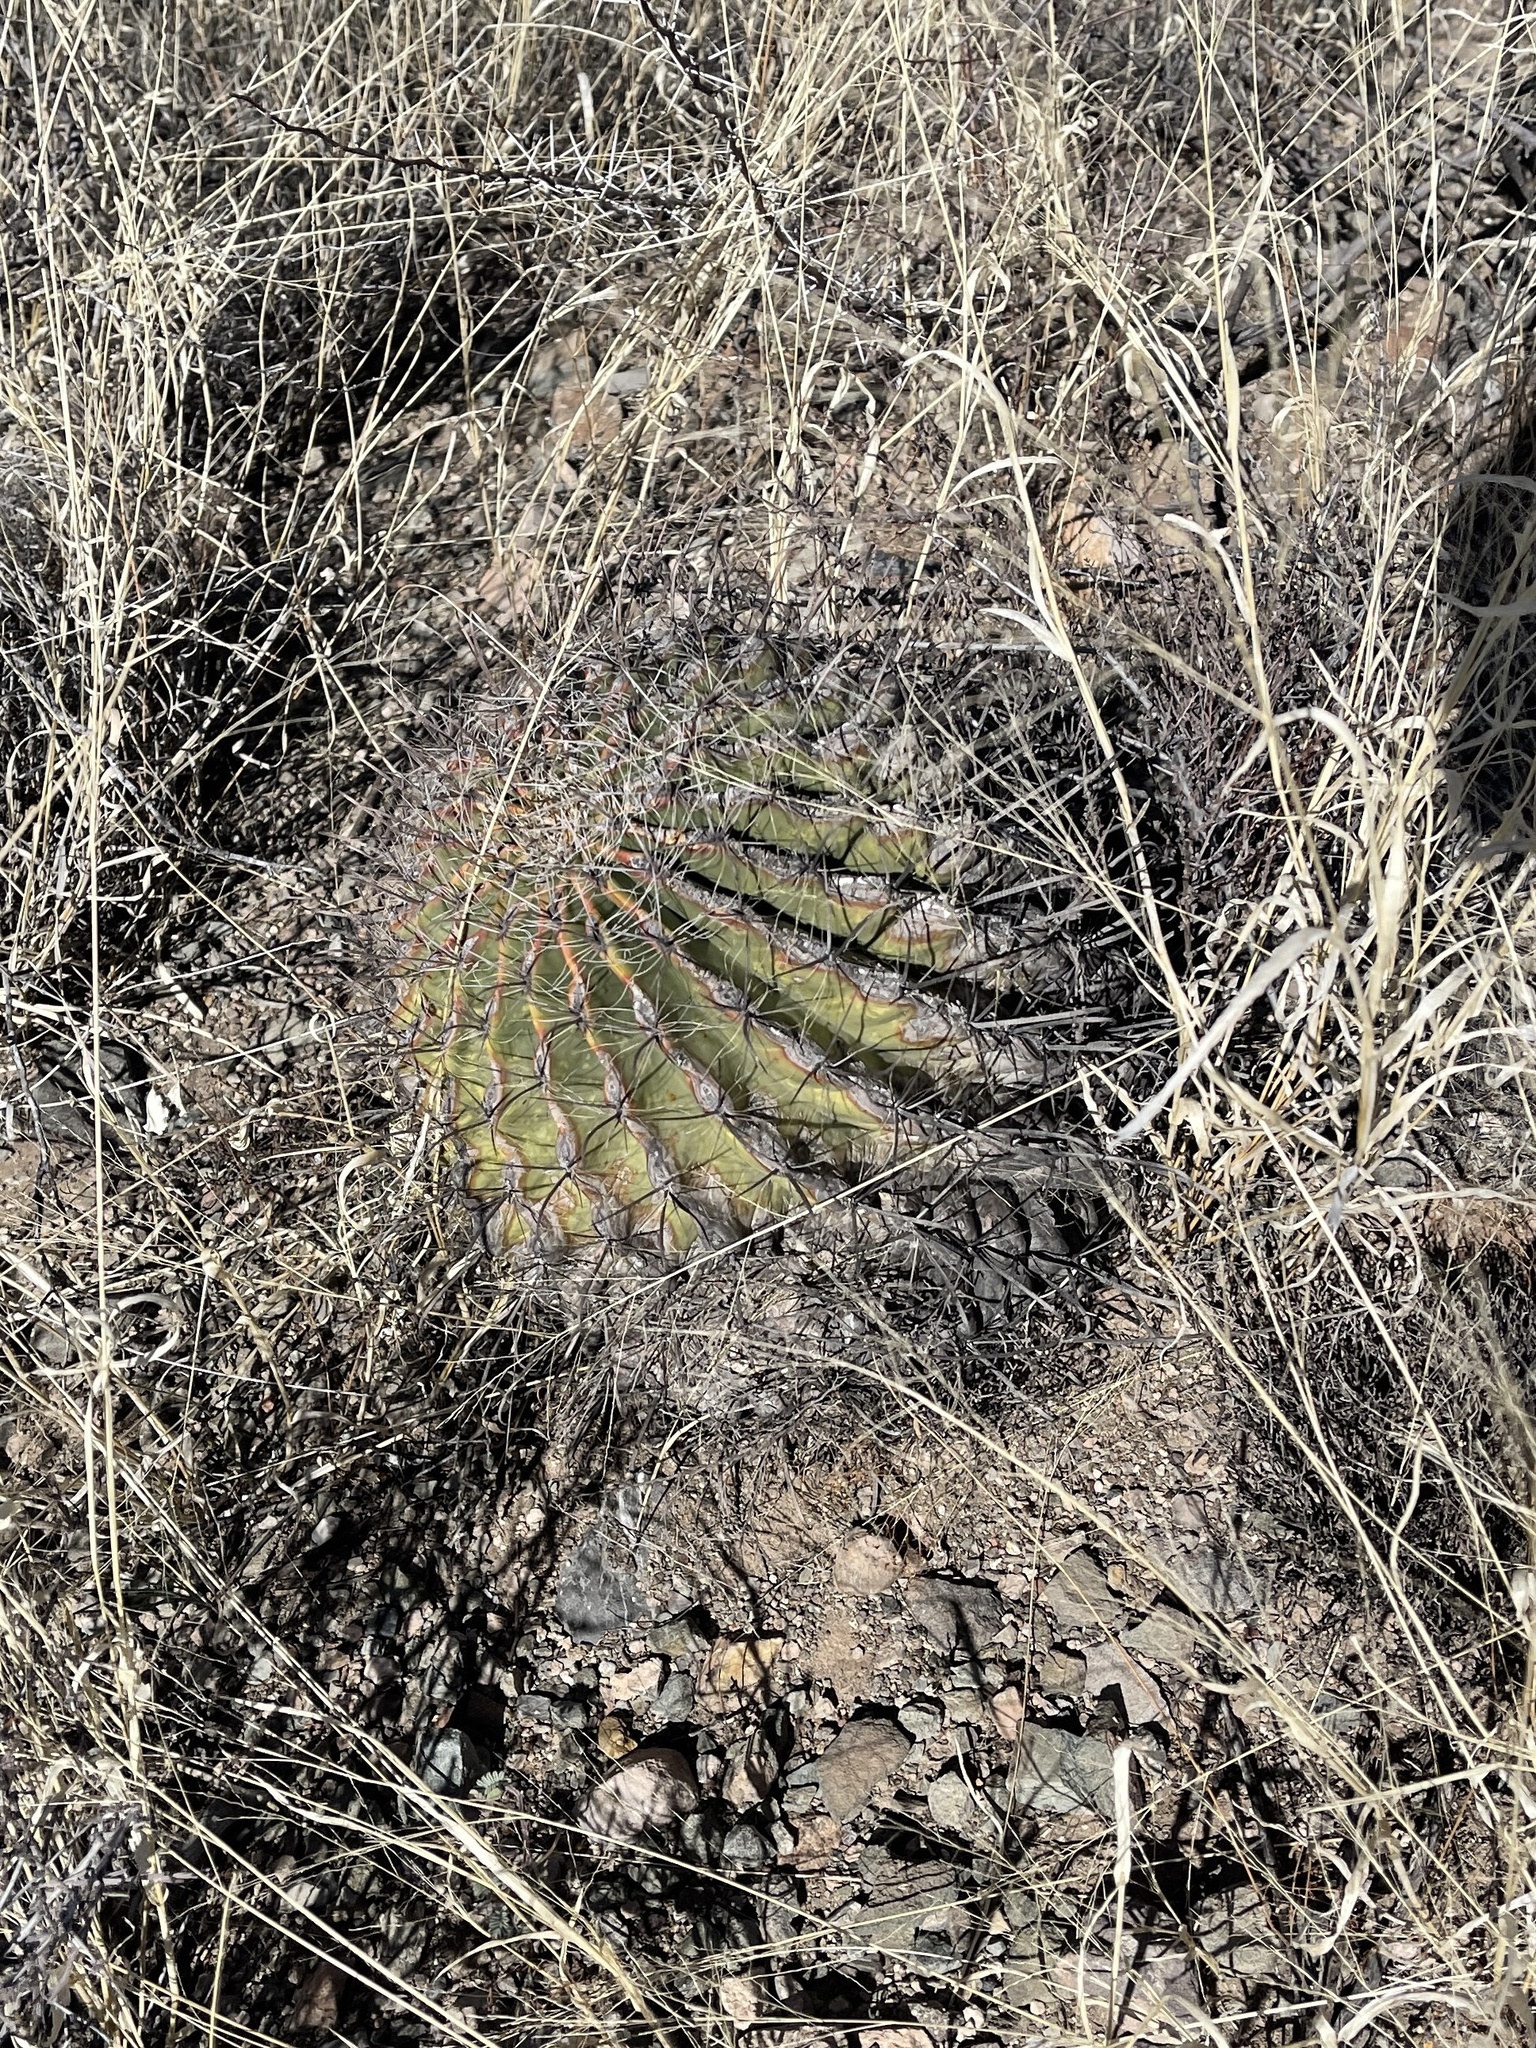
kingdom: Plantae
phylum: Tracheophyta
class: Magnoliopsida
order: Caryophyllales
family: Cactaceae
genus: Ferocactus
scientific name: Ferocactus wislizeni
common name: Candy barrel cactus
